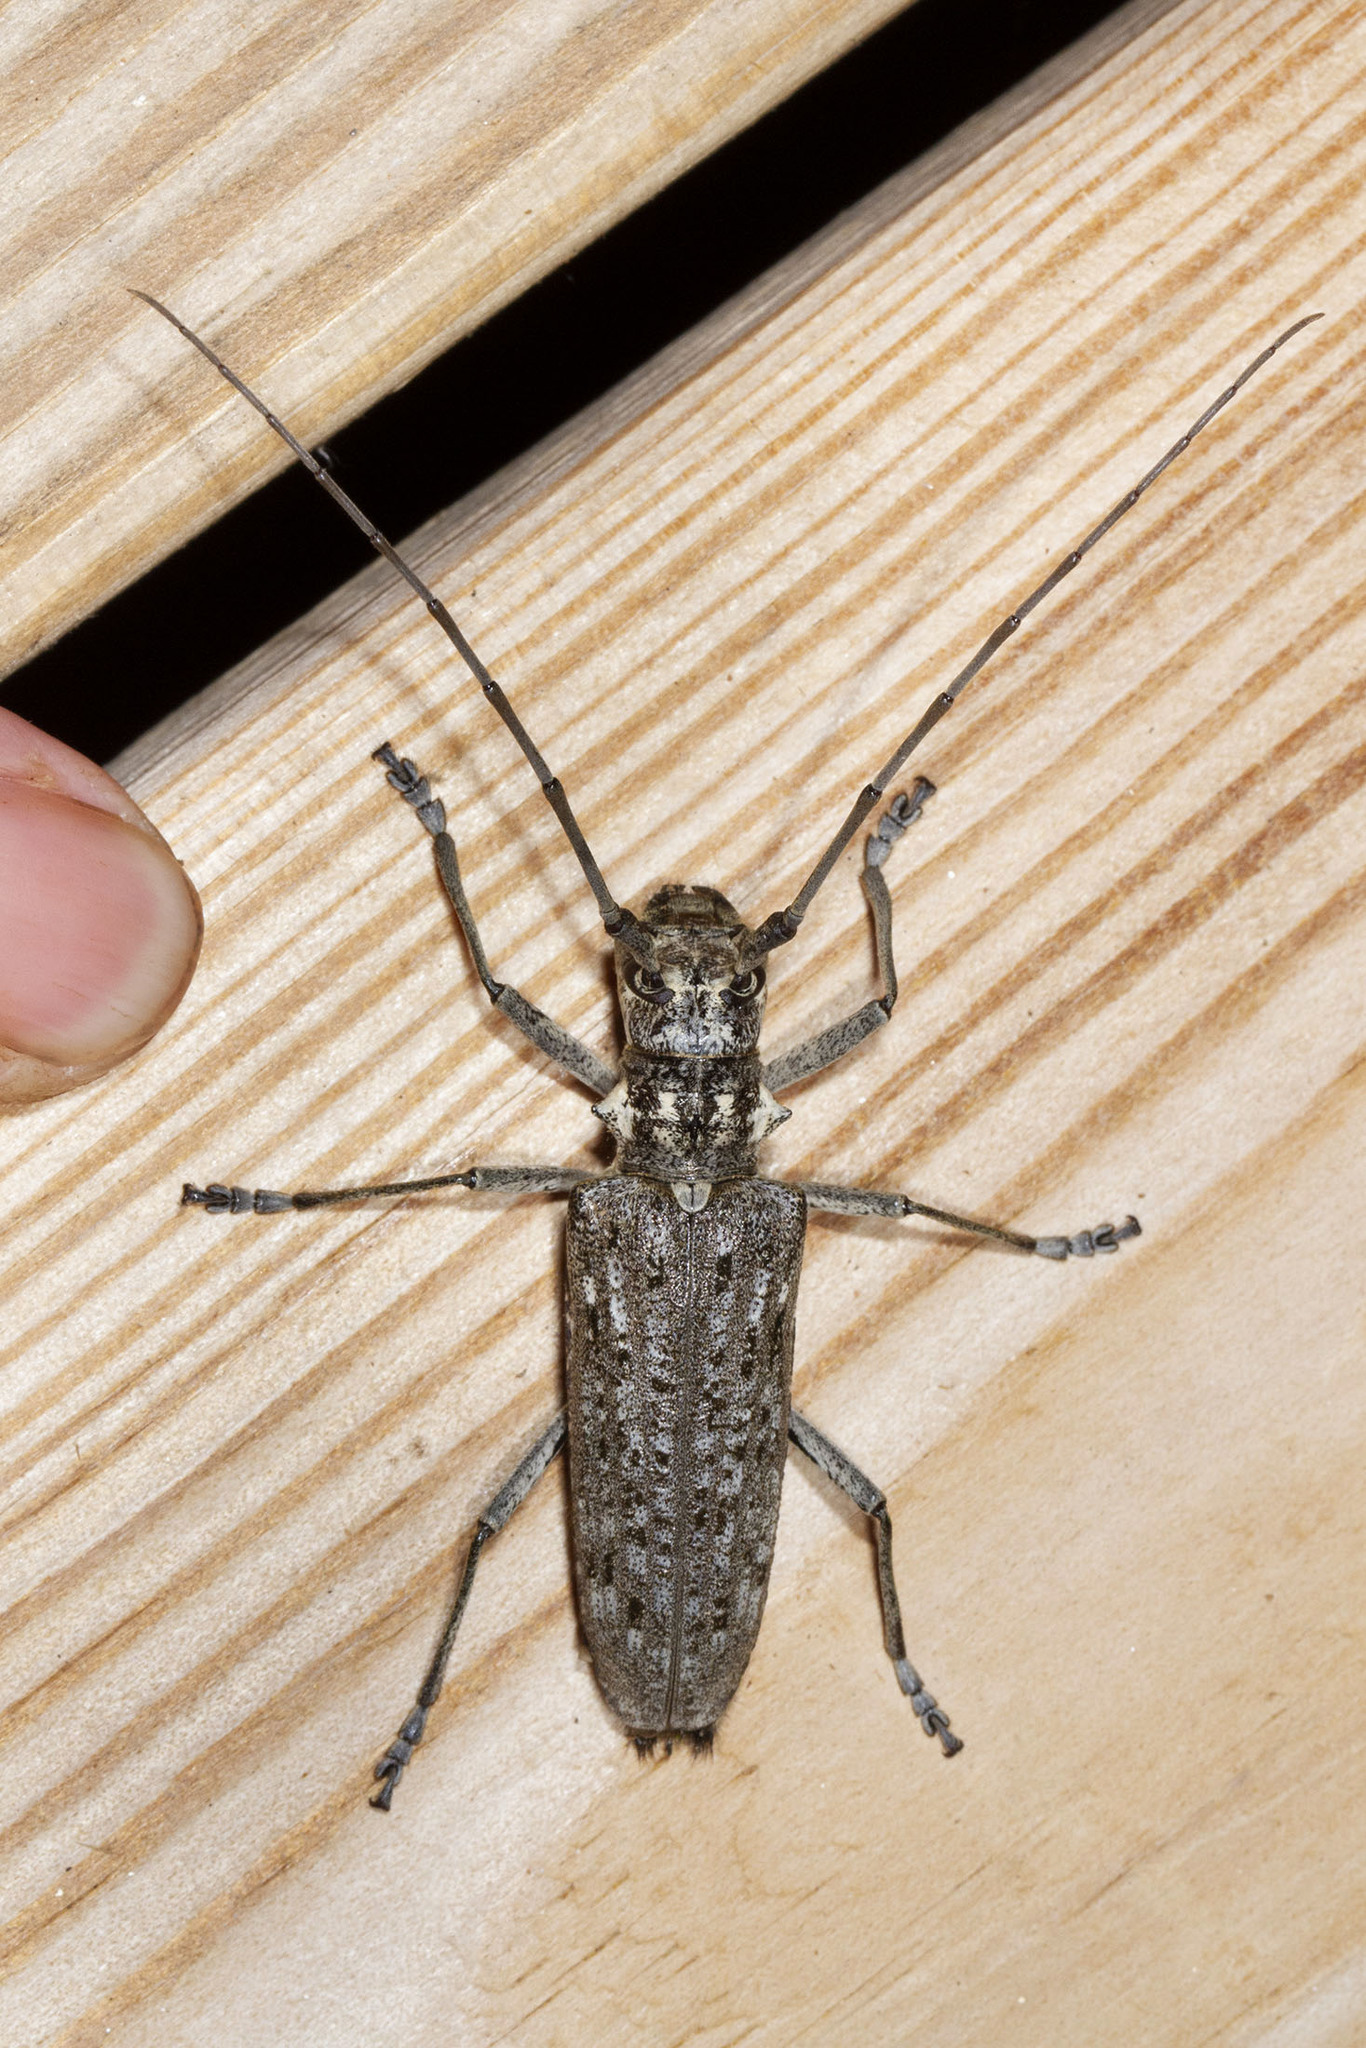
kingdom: Animalia
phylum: Arthropoda
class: Insecta
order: Coleoptera
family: Cerambycidae
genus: Monochamus
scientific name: Monochamus notatus
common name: Northeastern pine sawyer beetle
